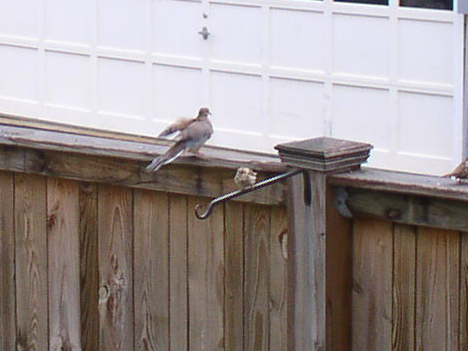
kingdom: Animalia
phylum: Chordata
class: Aves
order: Columbiformes
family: Columbidae
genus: Zenaida
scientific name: Zenaida macroura
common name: Mourning dove
